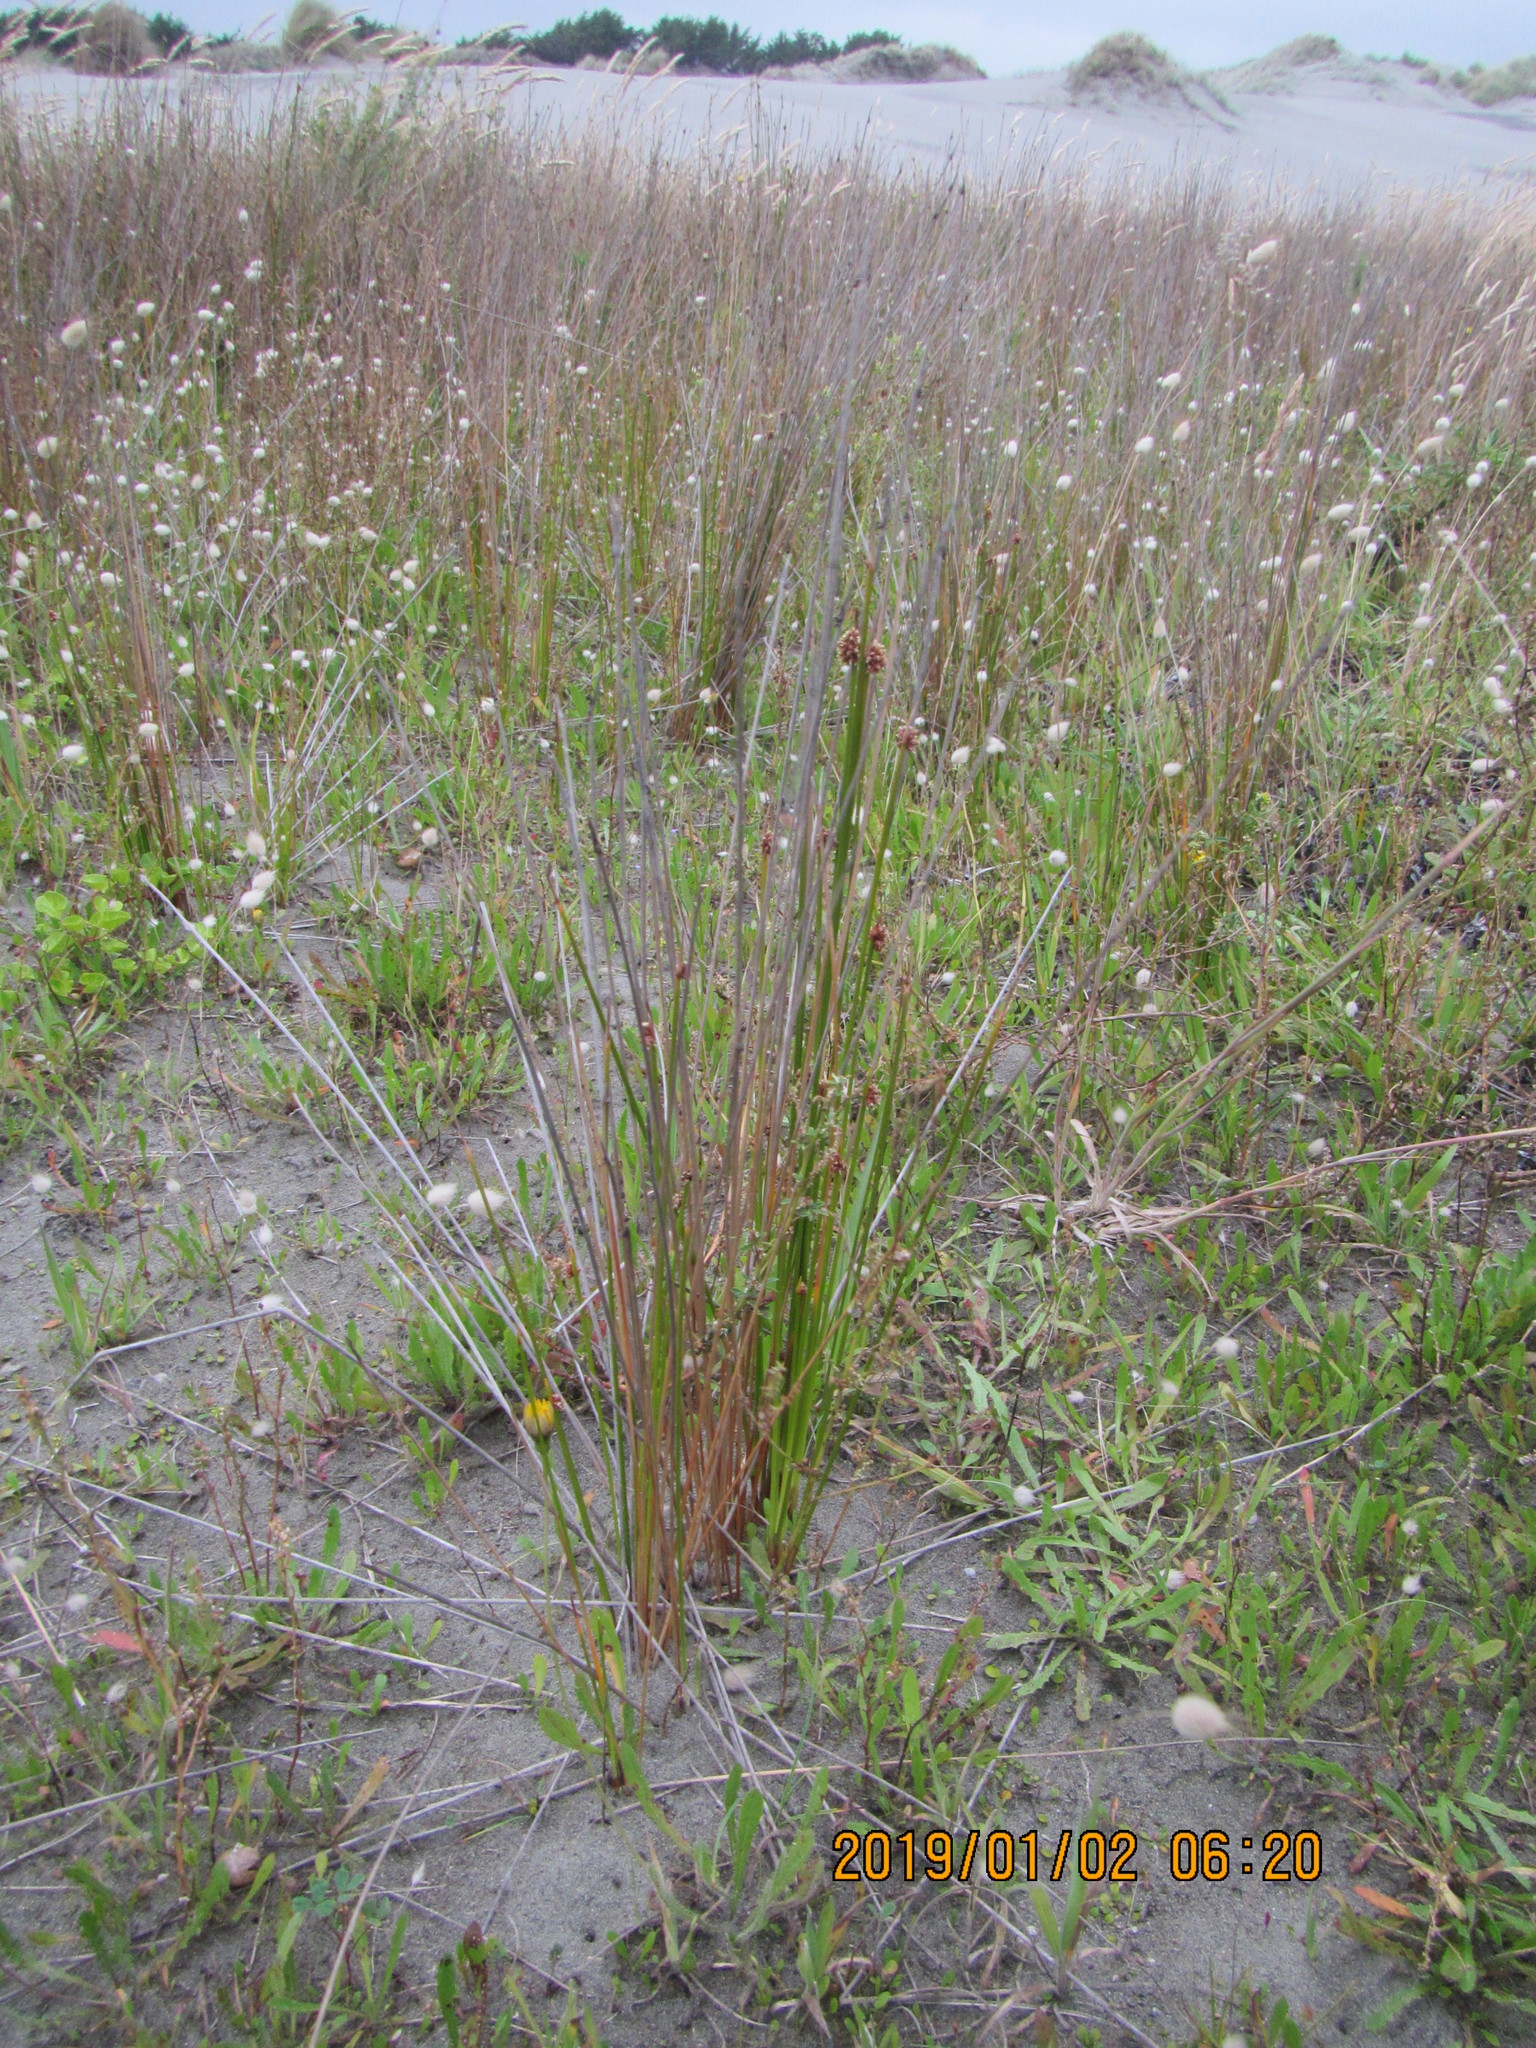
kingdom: Plantae
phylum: Tracheophyta
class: Liliopsida
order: Poales
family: Cyperaceae
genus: Ficinia
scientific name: Ficinia nodosa
